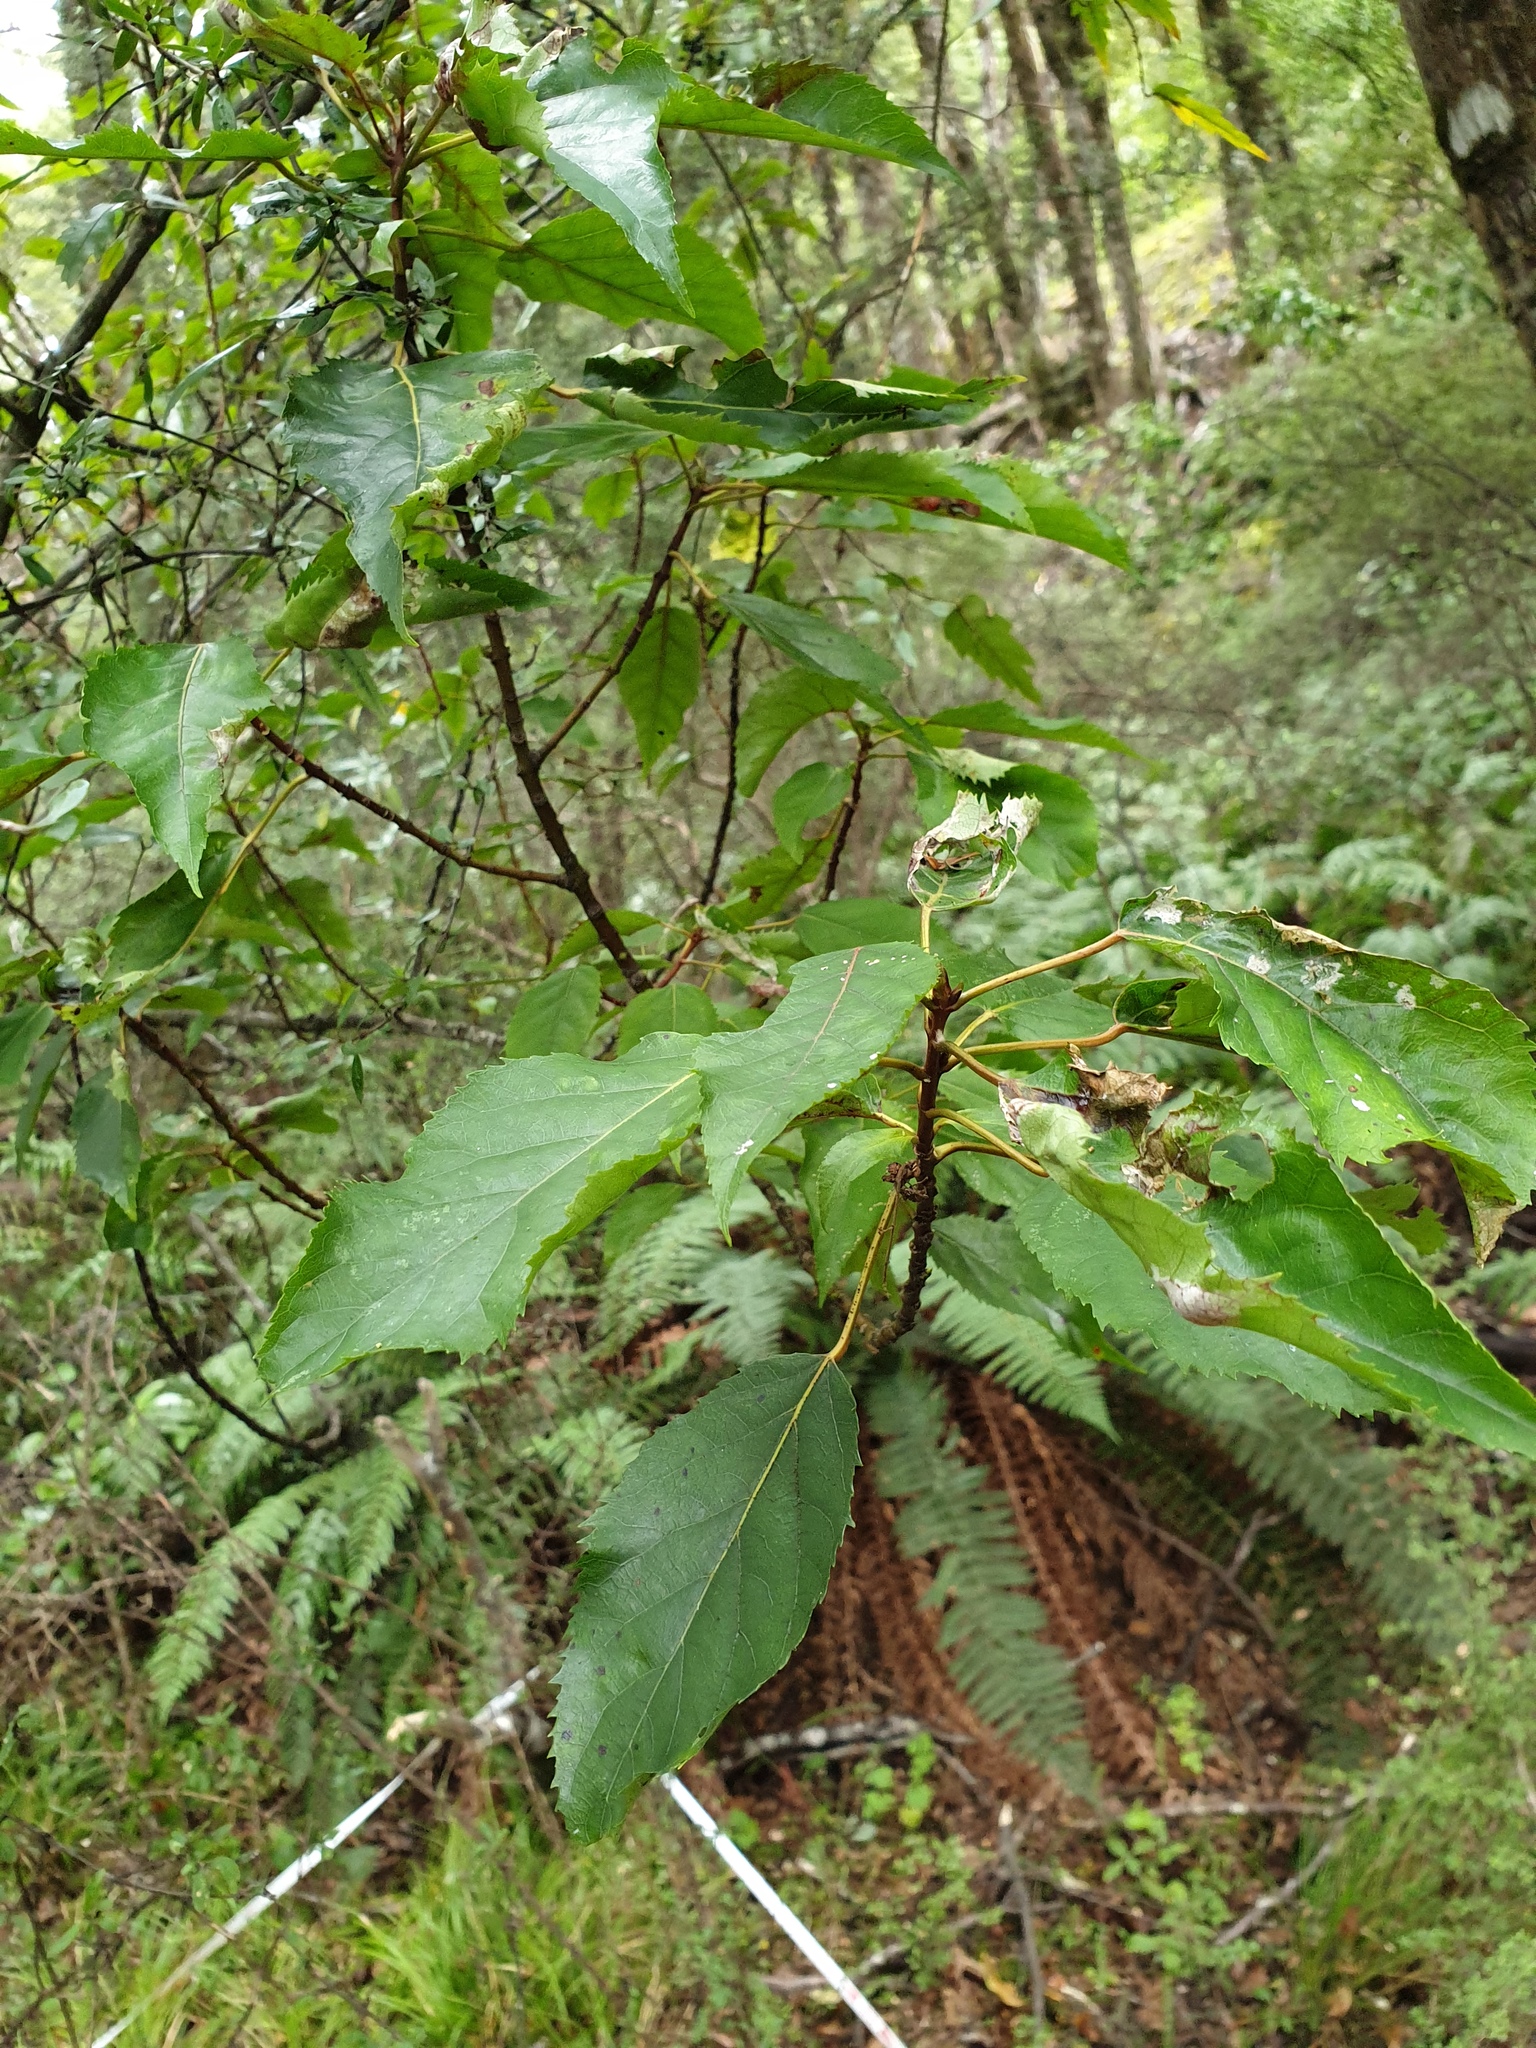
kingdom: Plantae
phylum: Tracheophyta
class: Magnoliopsida
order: Oxalidales
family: Elaeocarpaceae
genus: Aristotelia
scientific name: Aristotelia serrata
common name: New zealand wineberry
